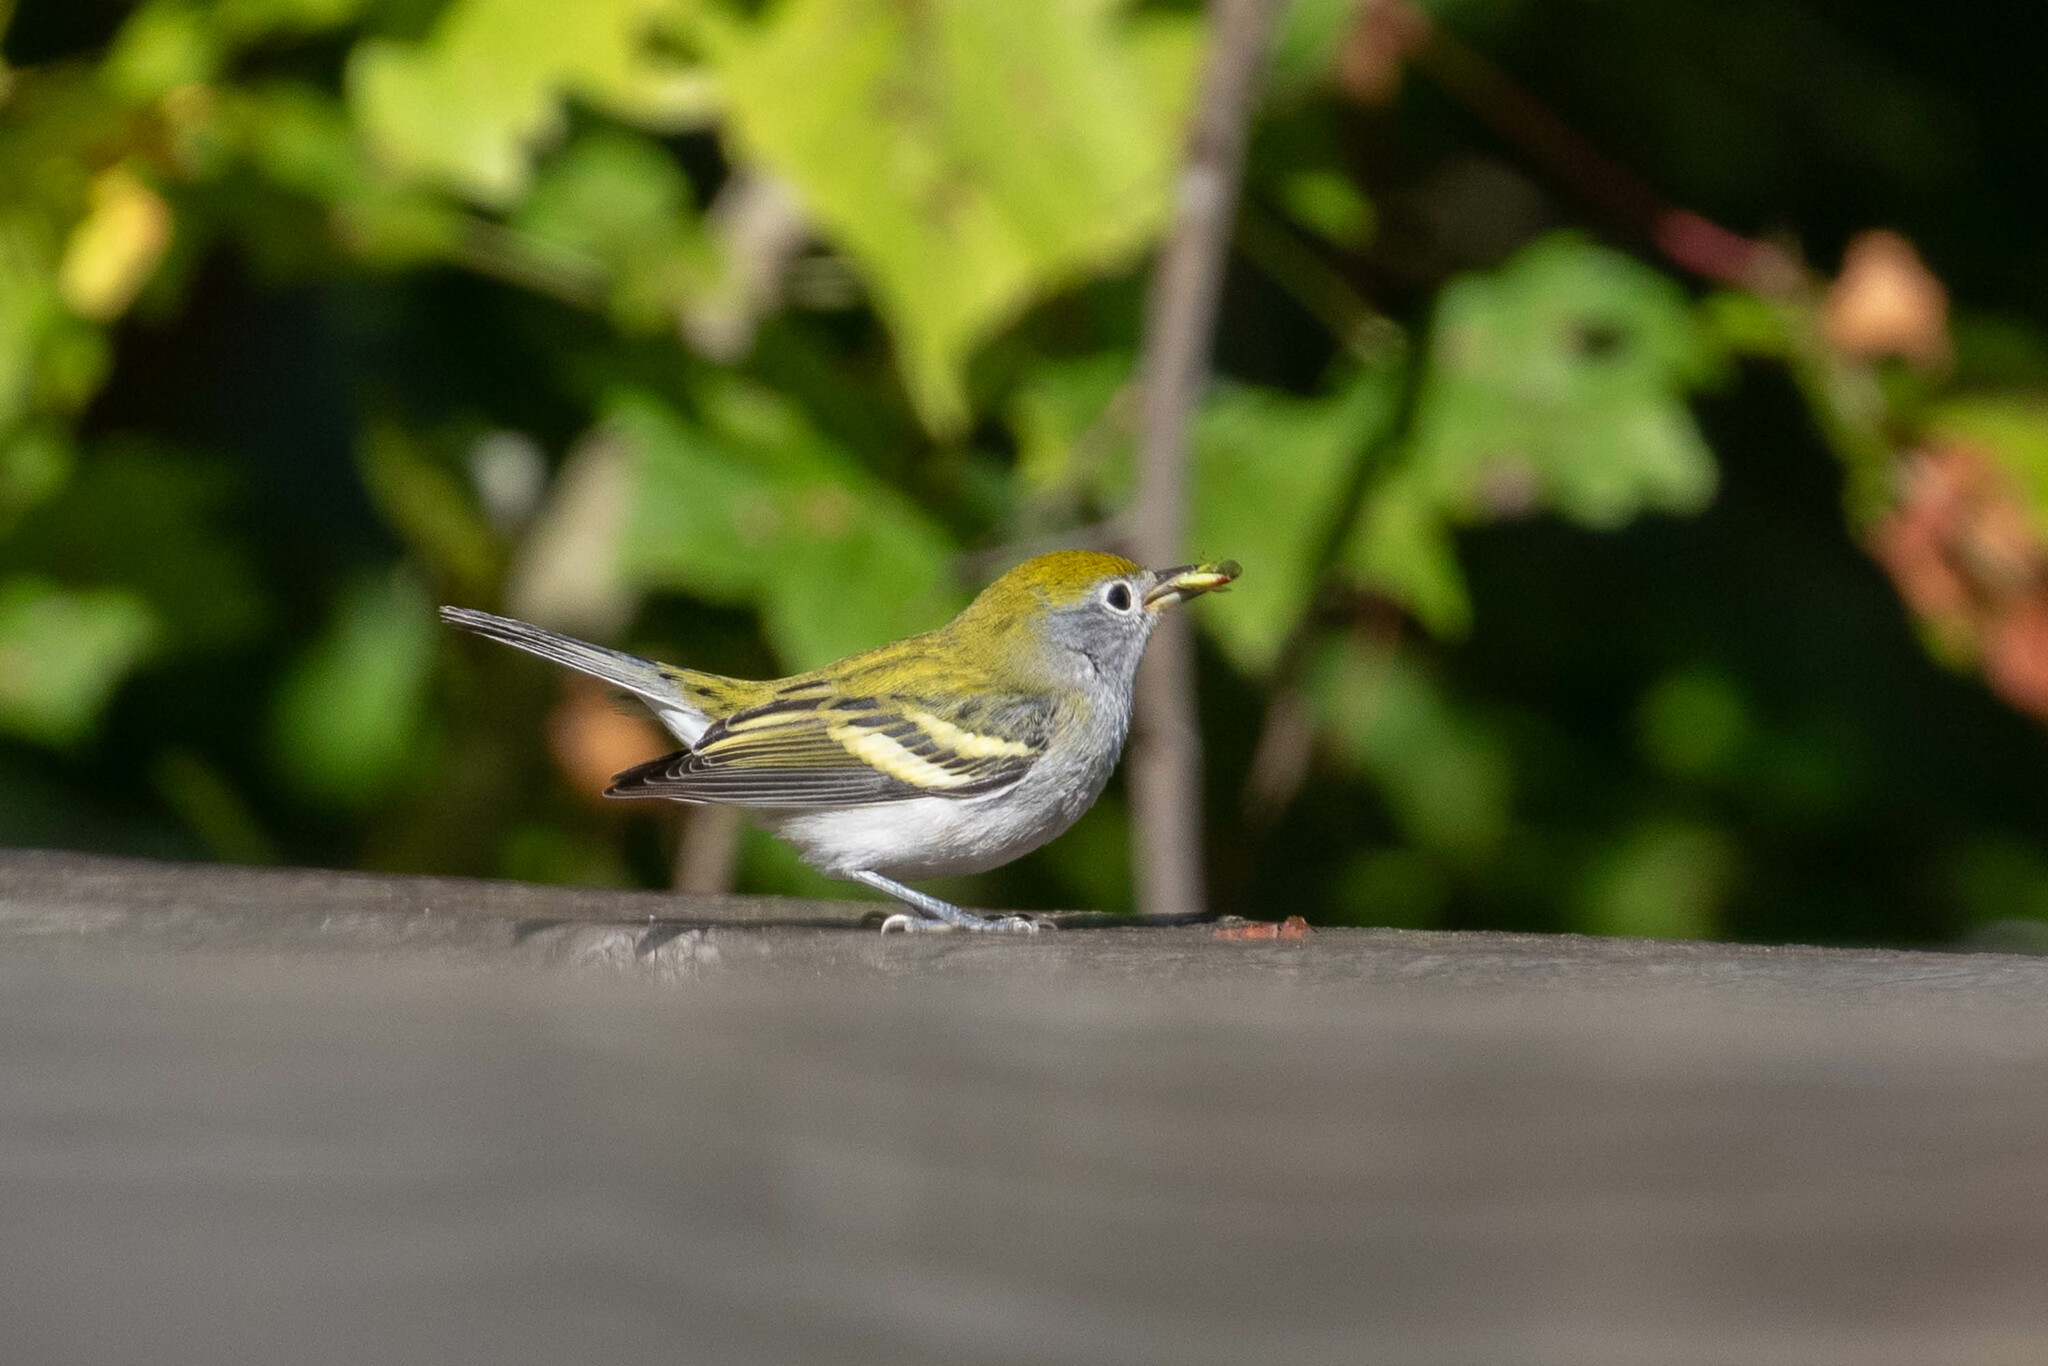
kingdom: Animalia
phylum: Chordata
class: Aves
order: Passeriformes
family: Parulidae
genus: Setophaga
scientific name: Setophaga pensylvanica
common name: Chestnut-sided warbler
